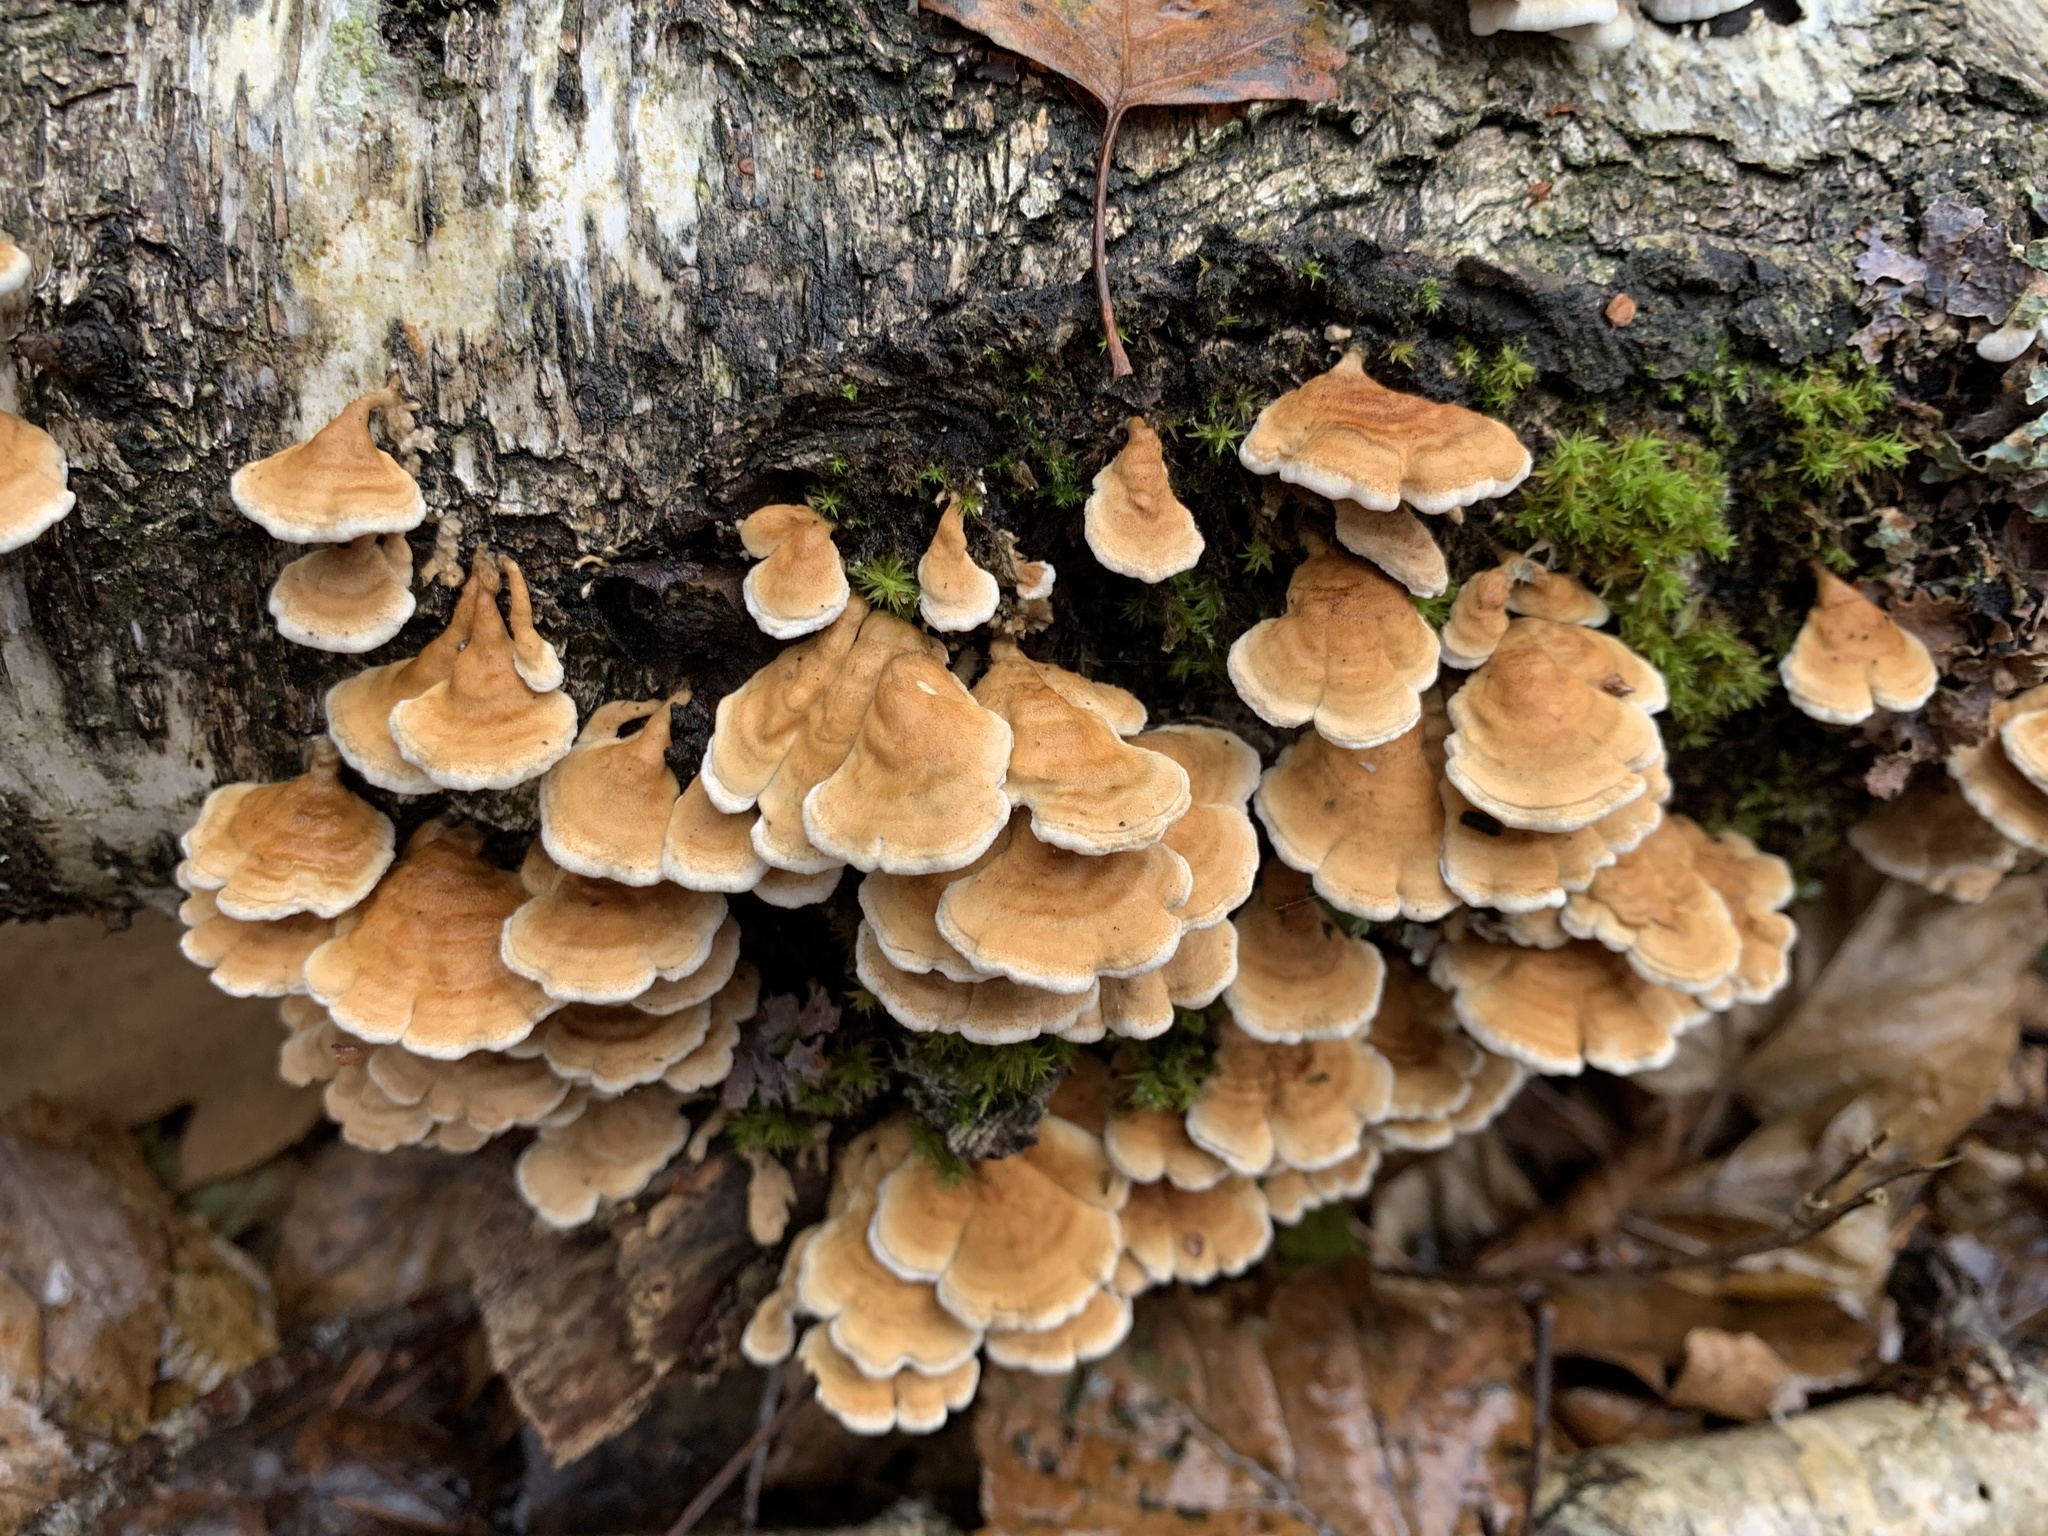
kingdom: Fungi
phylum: Basidiomycota
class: Agaricomycetes
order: Amylocorticiales
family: Amylocorticiaceae
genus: Plicaturopsis
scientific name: Plicaturopsis crispa
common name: Crimped gill
